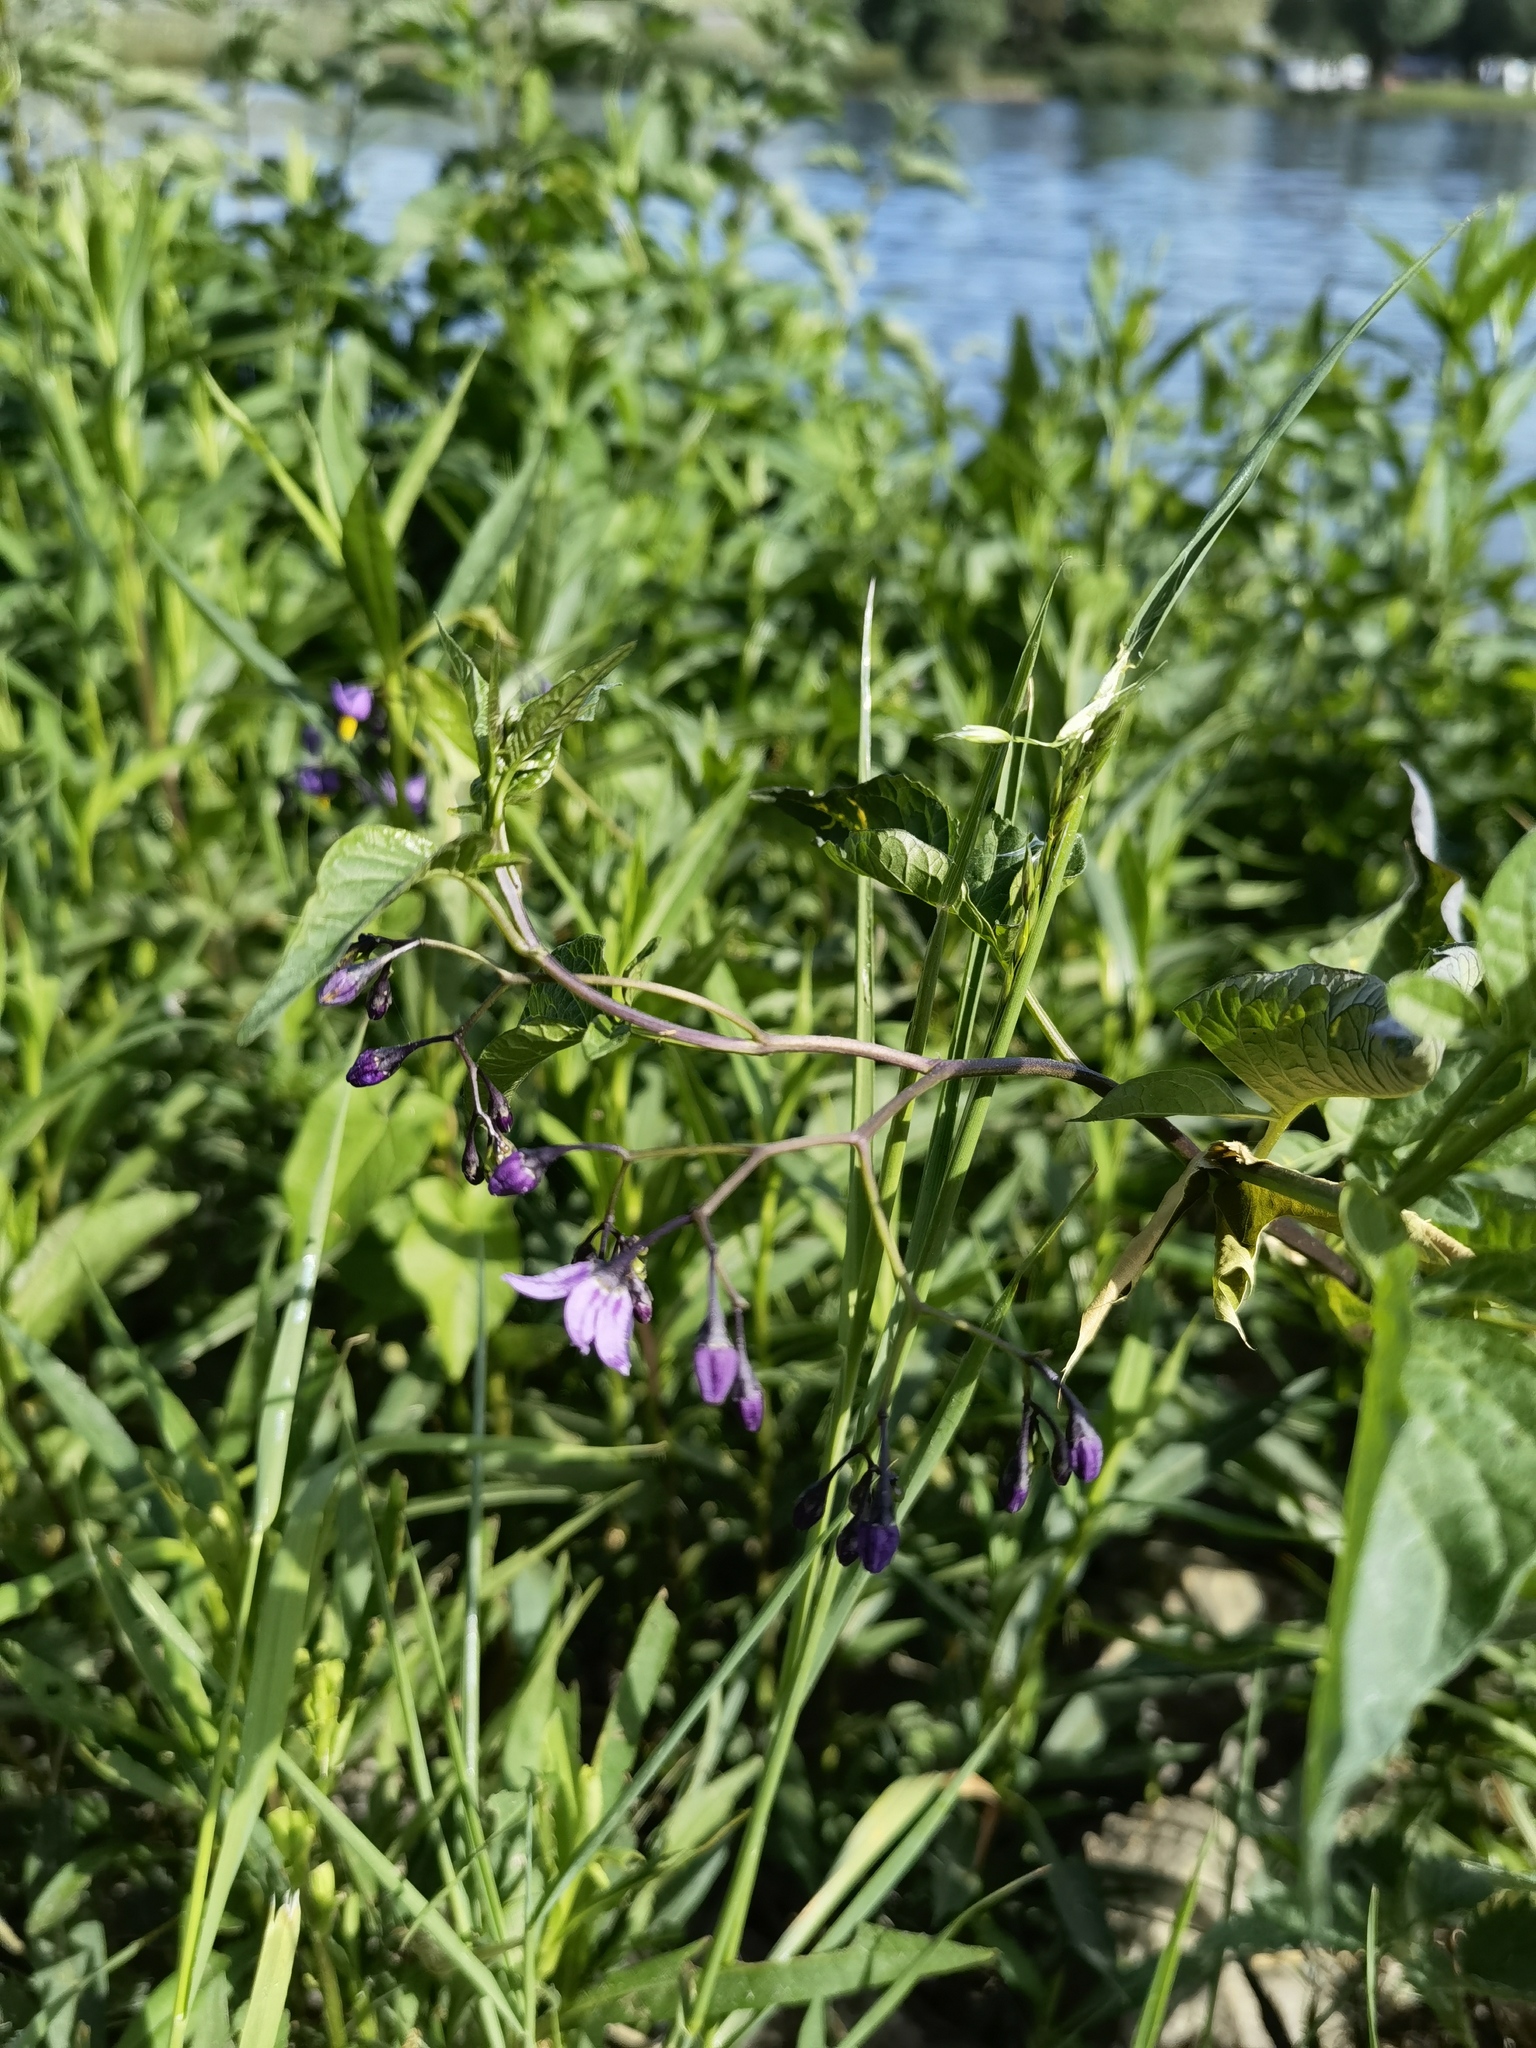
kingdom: Plantae
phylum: Tracheophyta
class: Magnoliopsida
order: Solanales
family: Solanaceae
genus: Solanum
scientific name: Solanum dulcamara
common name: Climbing nightshade
